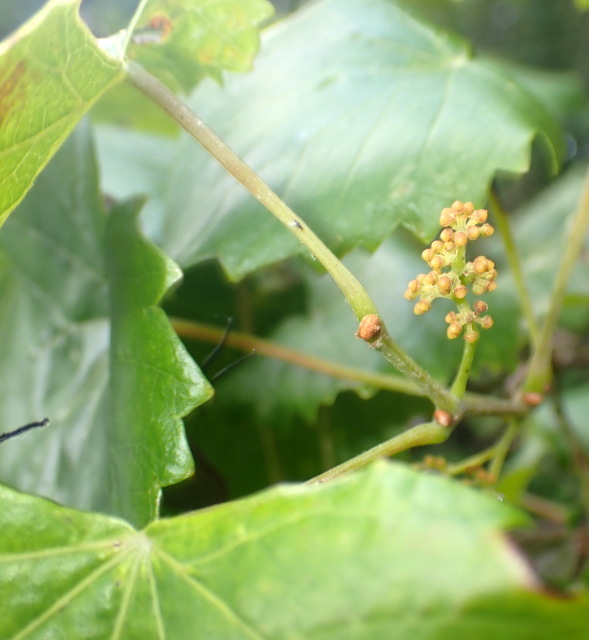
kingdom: Plantae
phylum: Tracheophyta
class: Magnoliopsida
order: Vitales
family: Vitaceae
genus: Vitis
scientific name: Vitis rotundifolia
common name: Muscadine grape
